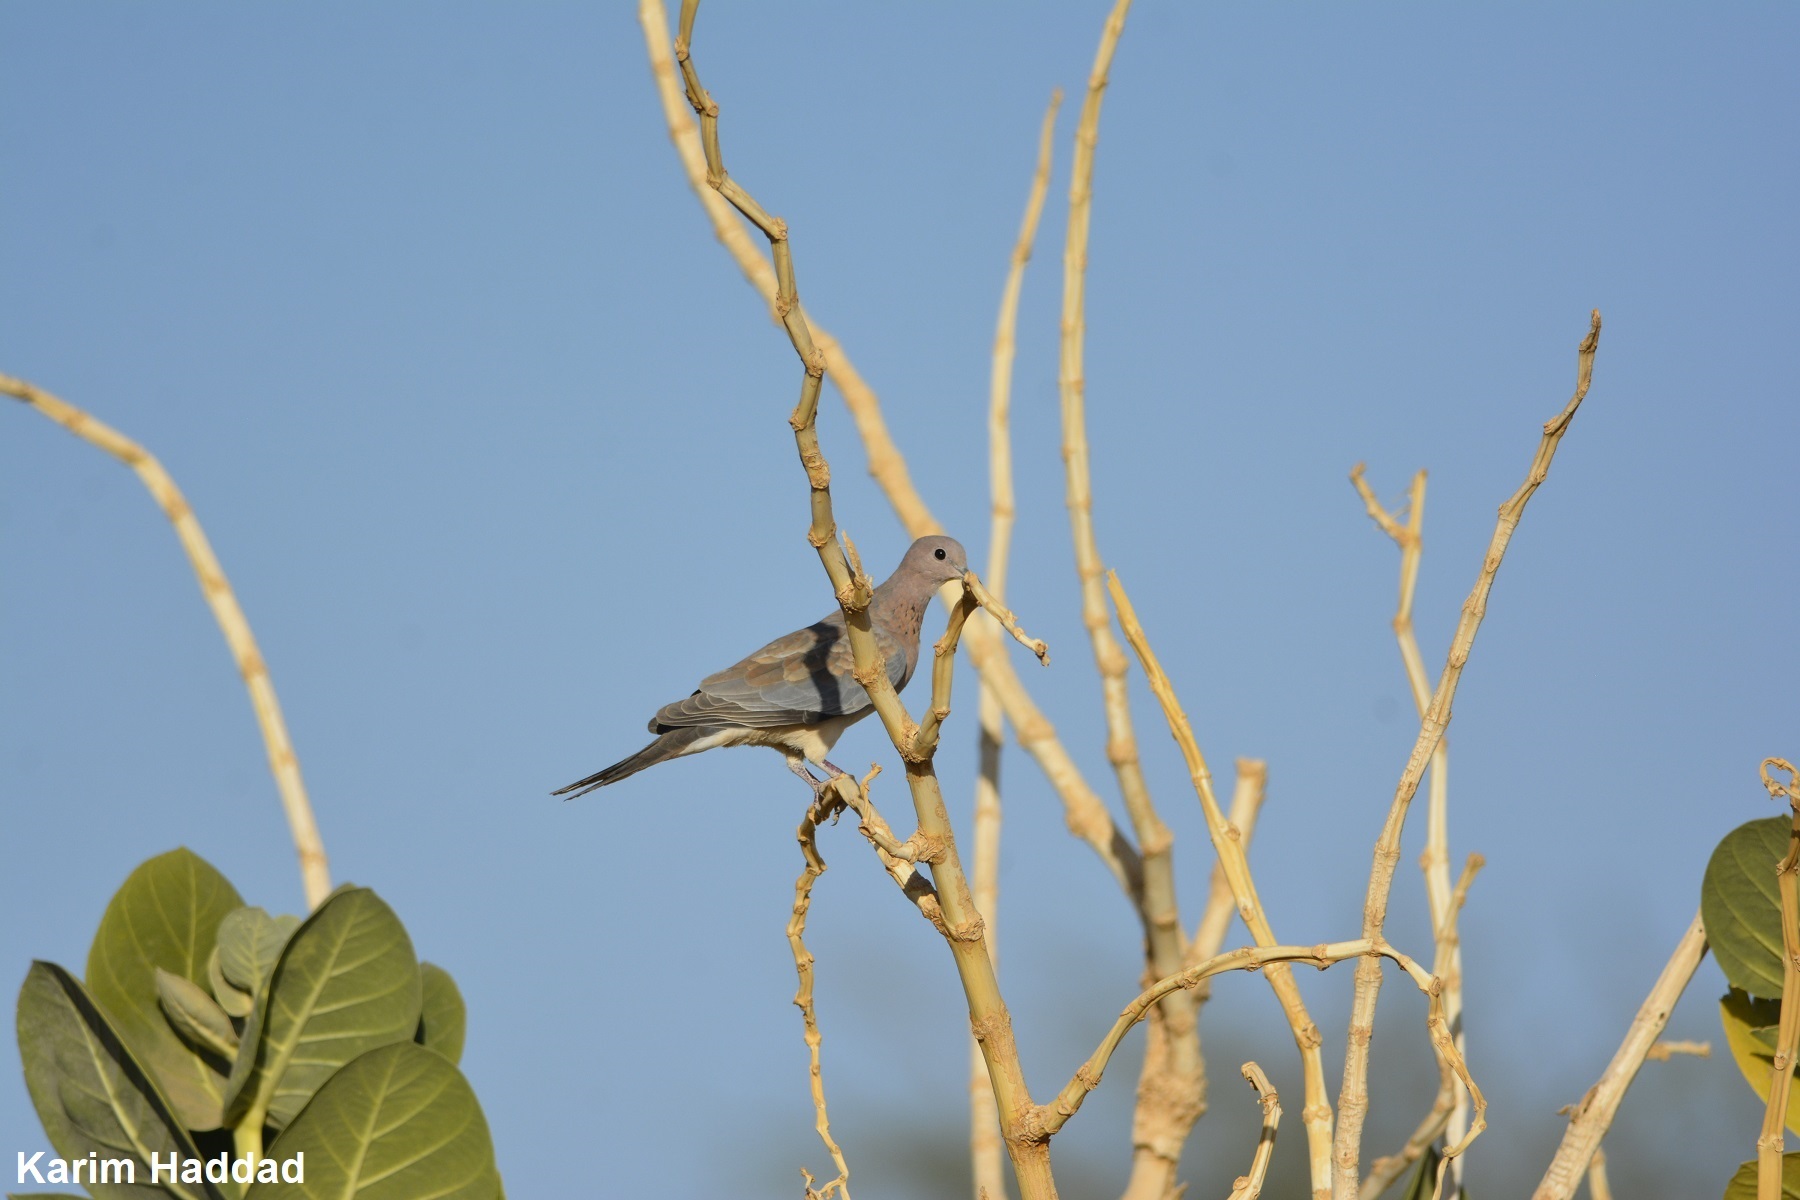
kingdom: Animalia
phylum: Chordata
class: Aves
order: Columbiformes
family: Columbidae
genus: Spilopelia
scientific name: Spilopelia senegalensis
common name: Laughing dove
